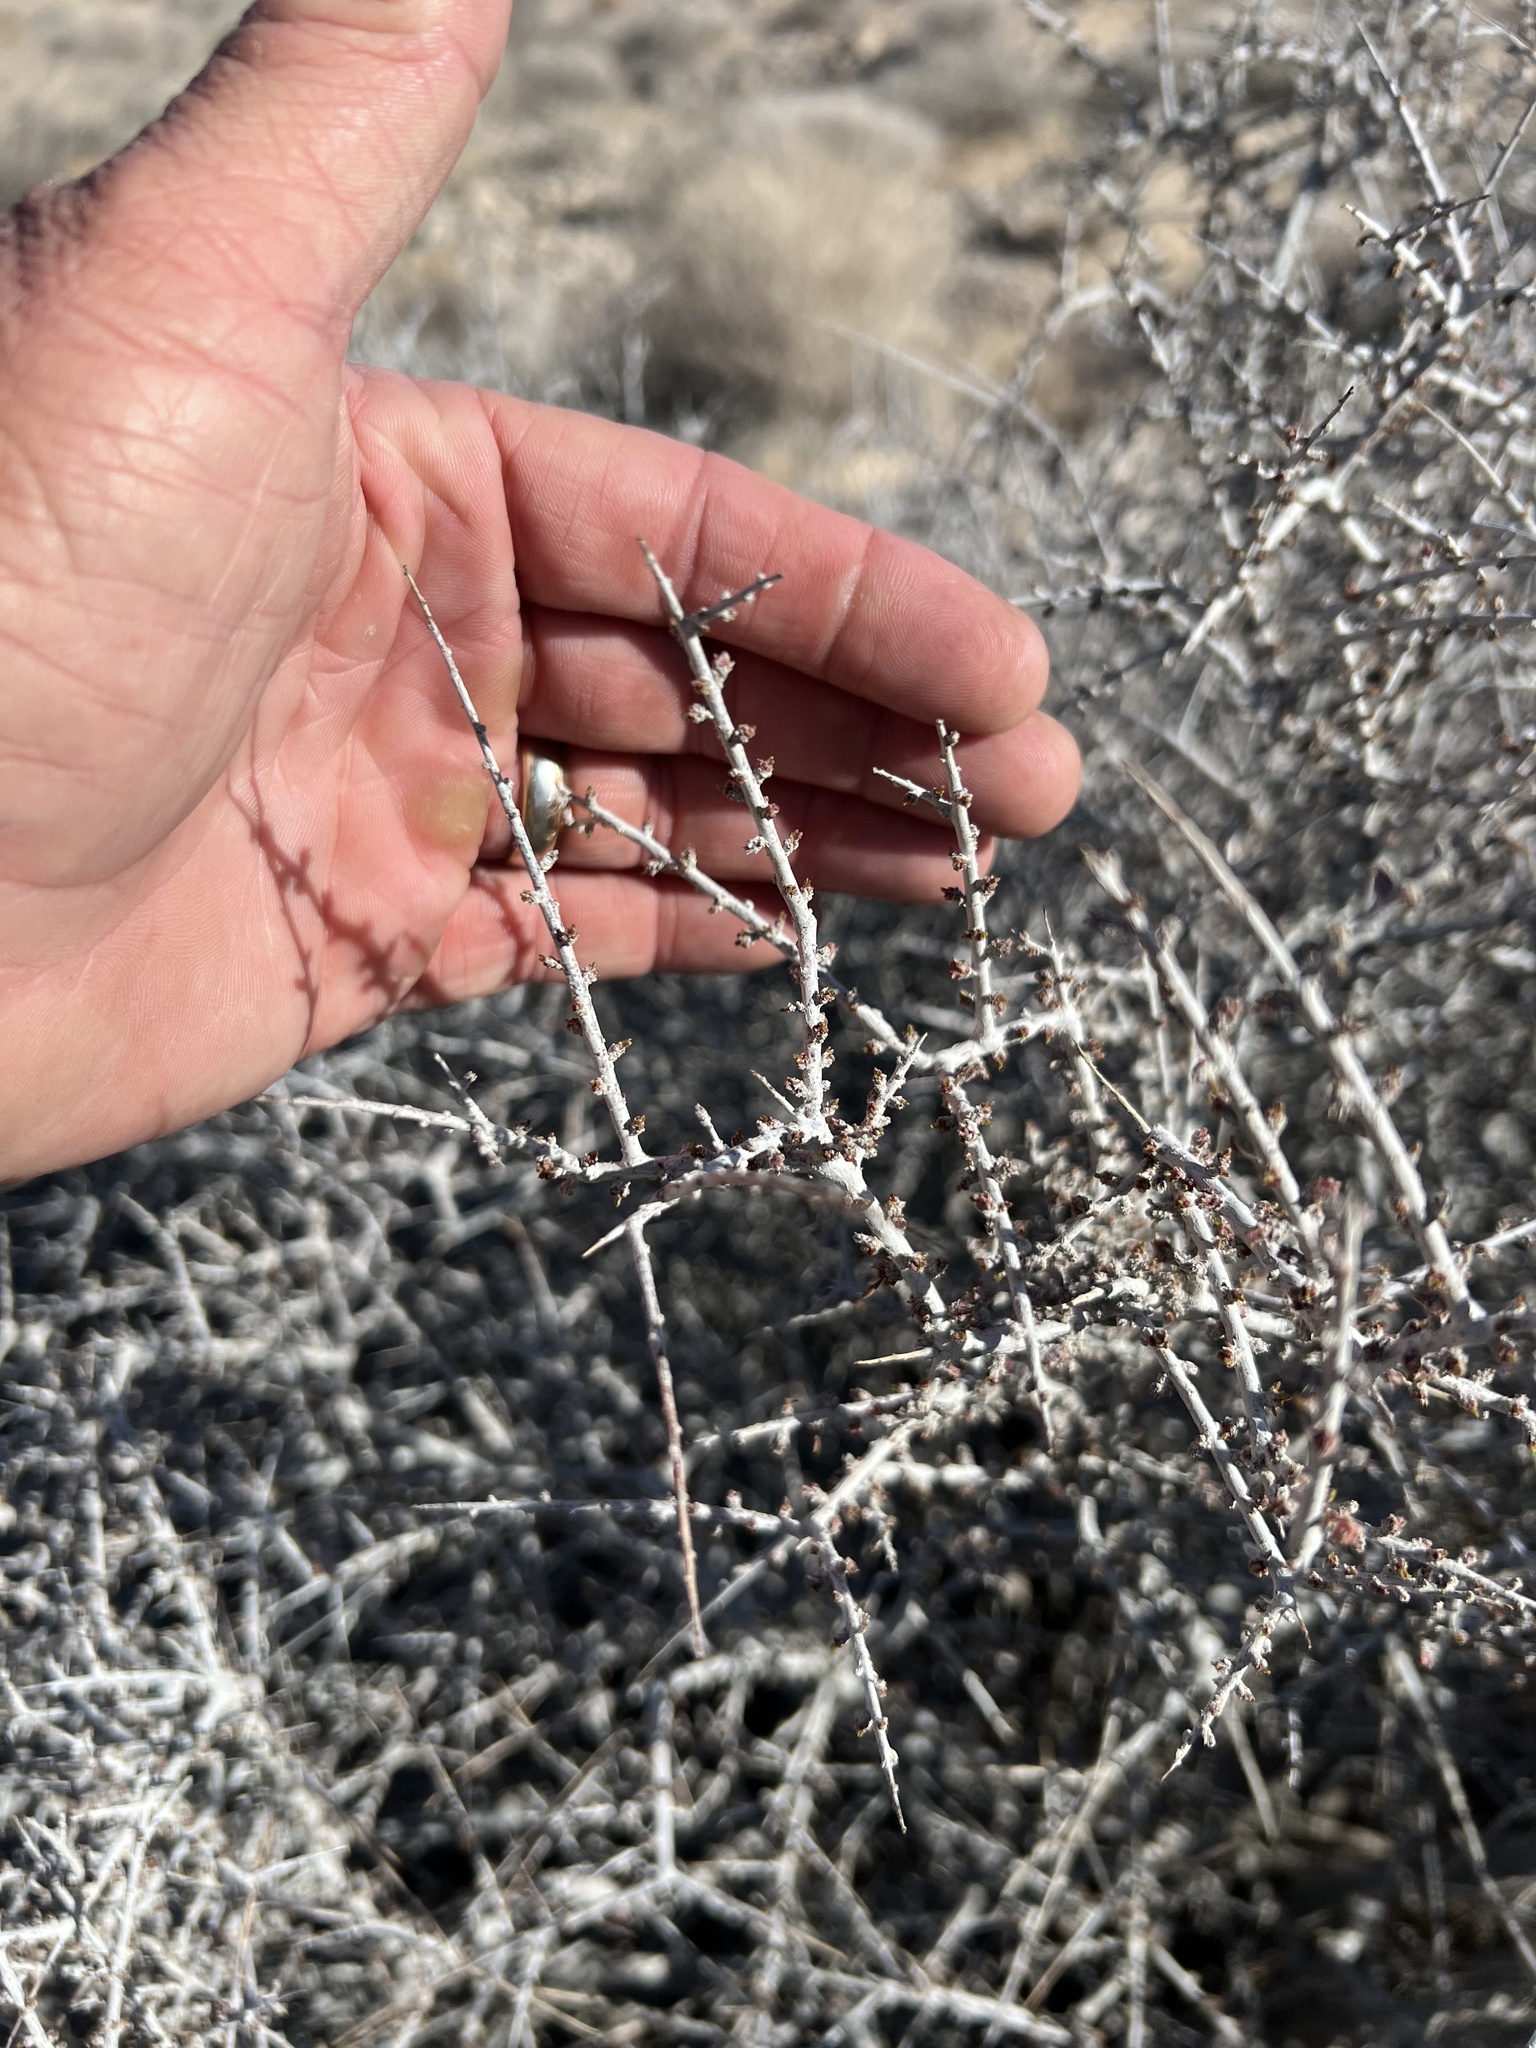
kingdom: Plantae
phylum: Tracheophyta
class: Magnoliopsida
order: Rosales
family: Rosaceae
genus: Prunus
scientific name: Prunus fasciculata
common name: Desert almond
